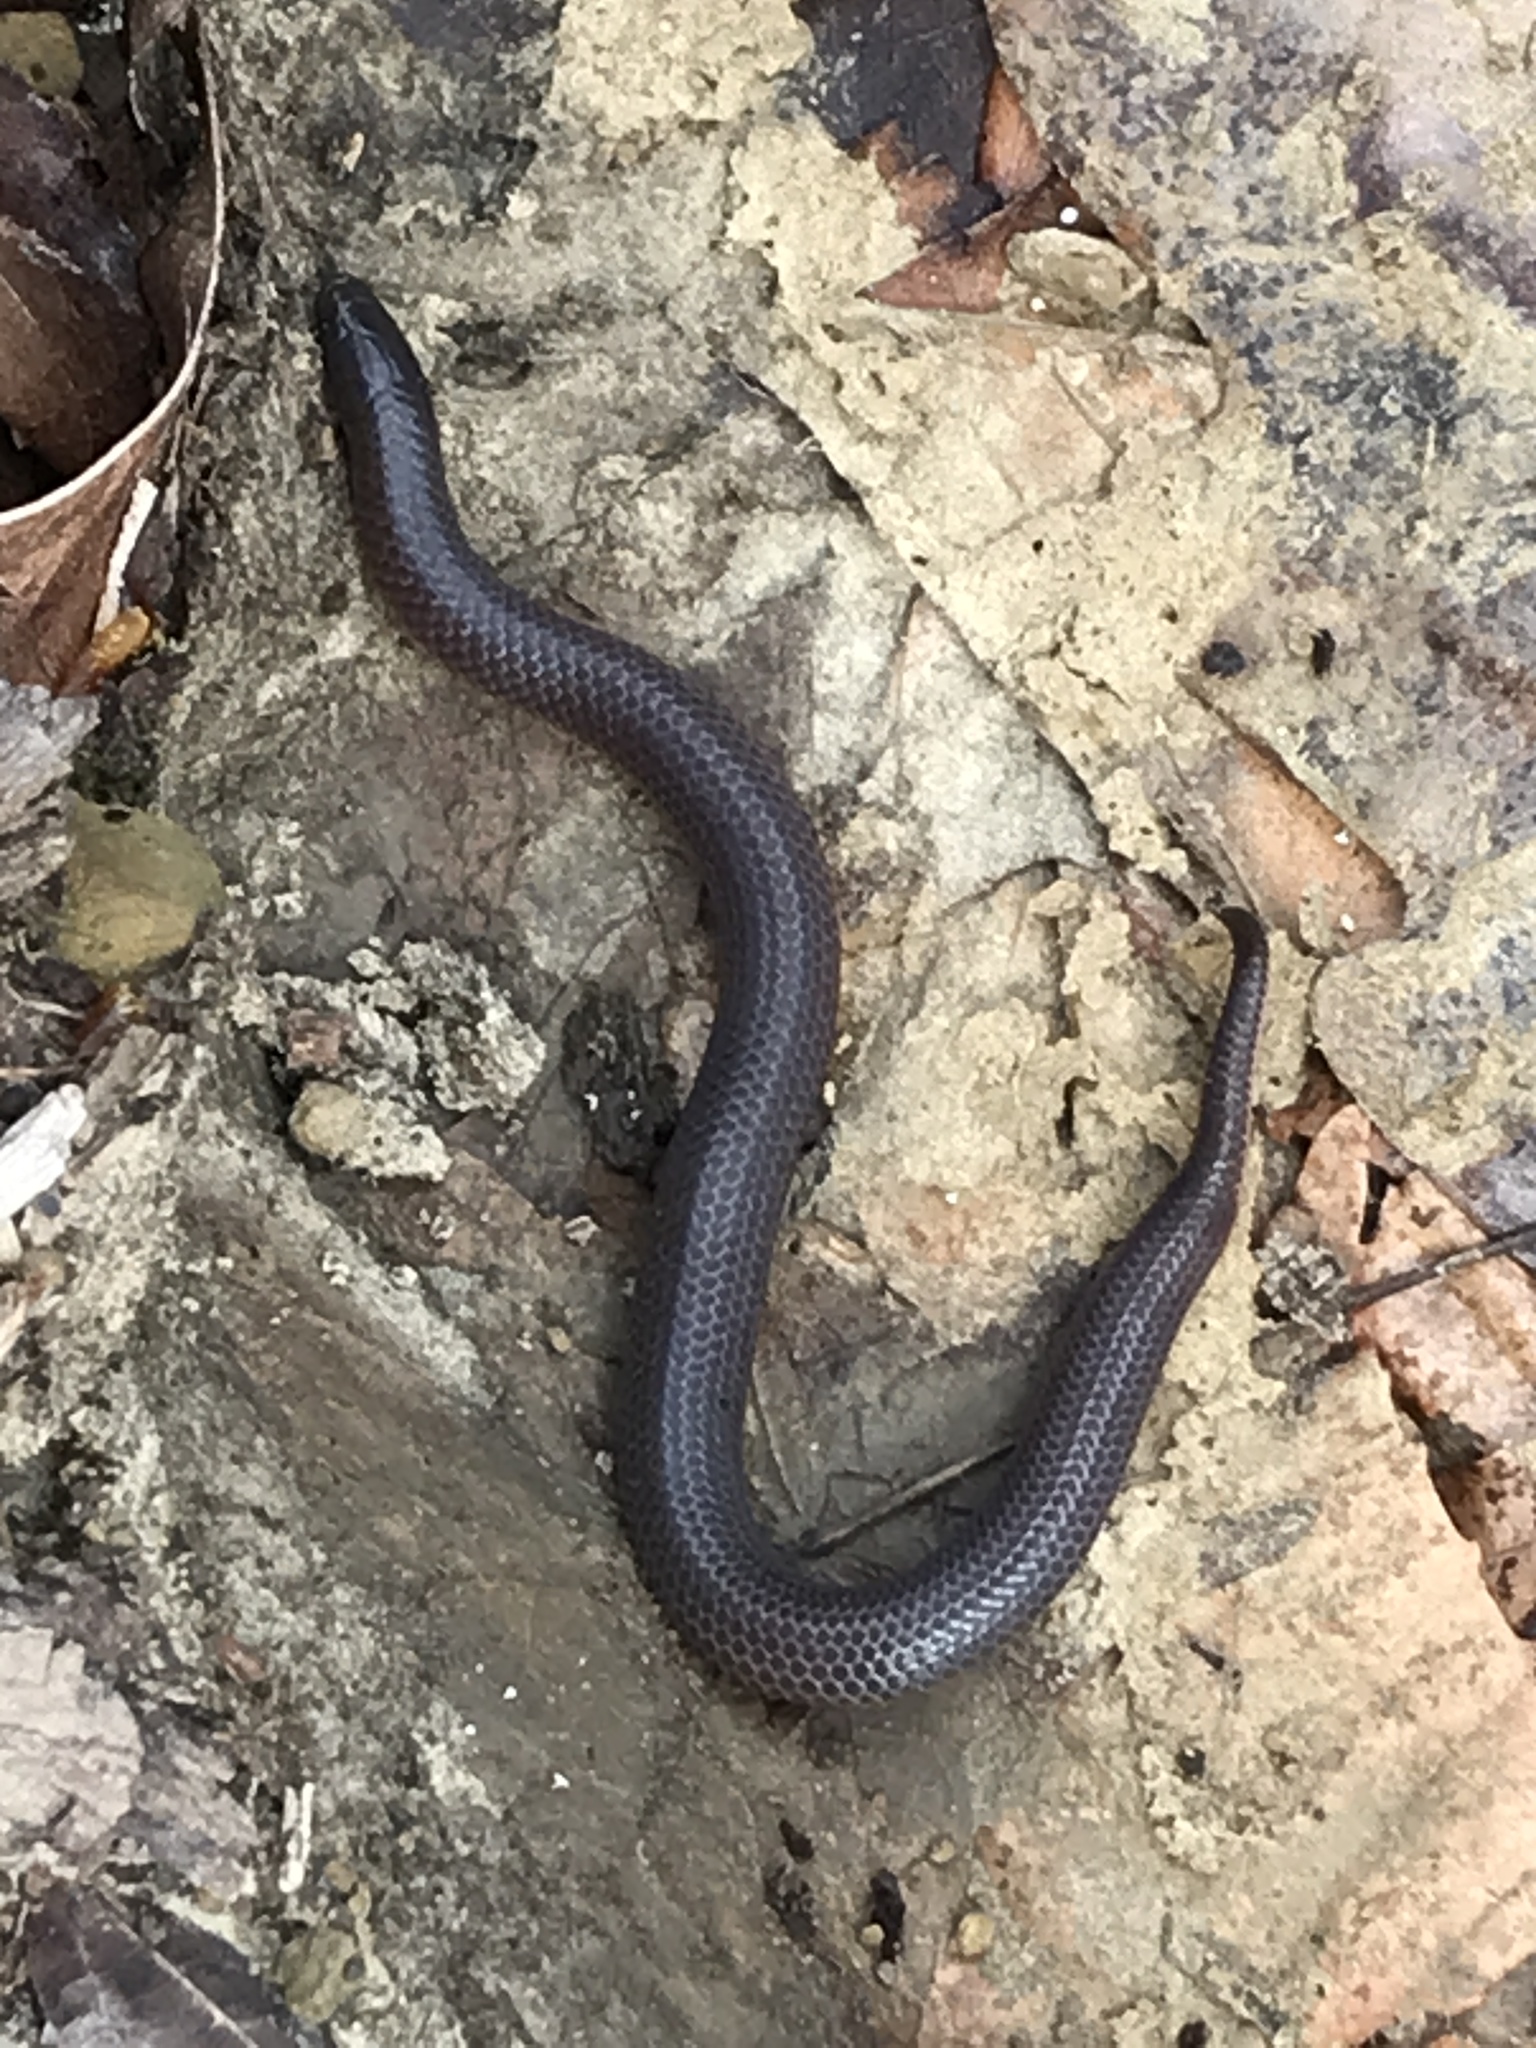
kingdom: Animalia
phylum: Chordata
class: Squamata
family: Colubridae
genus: Carphophis
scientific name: Carphophis amoenus
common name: Eastern worm snake
